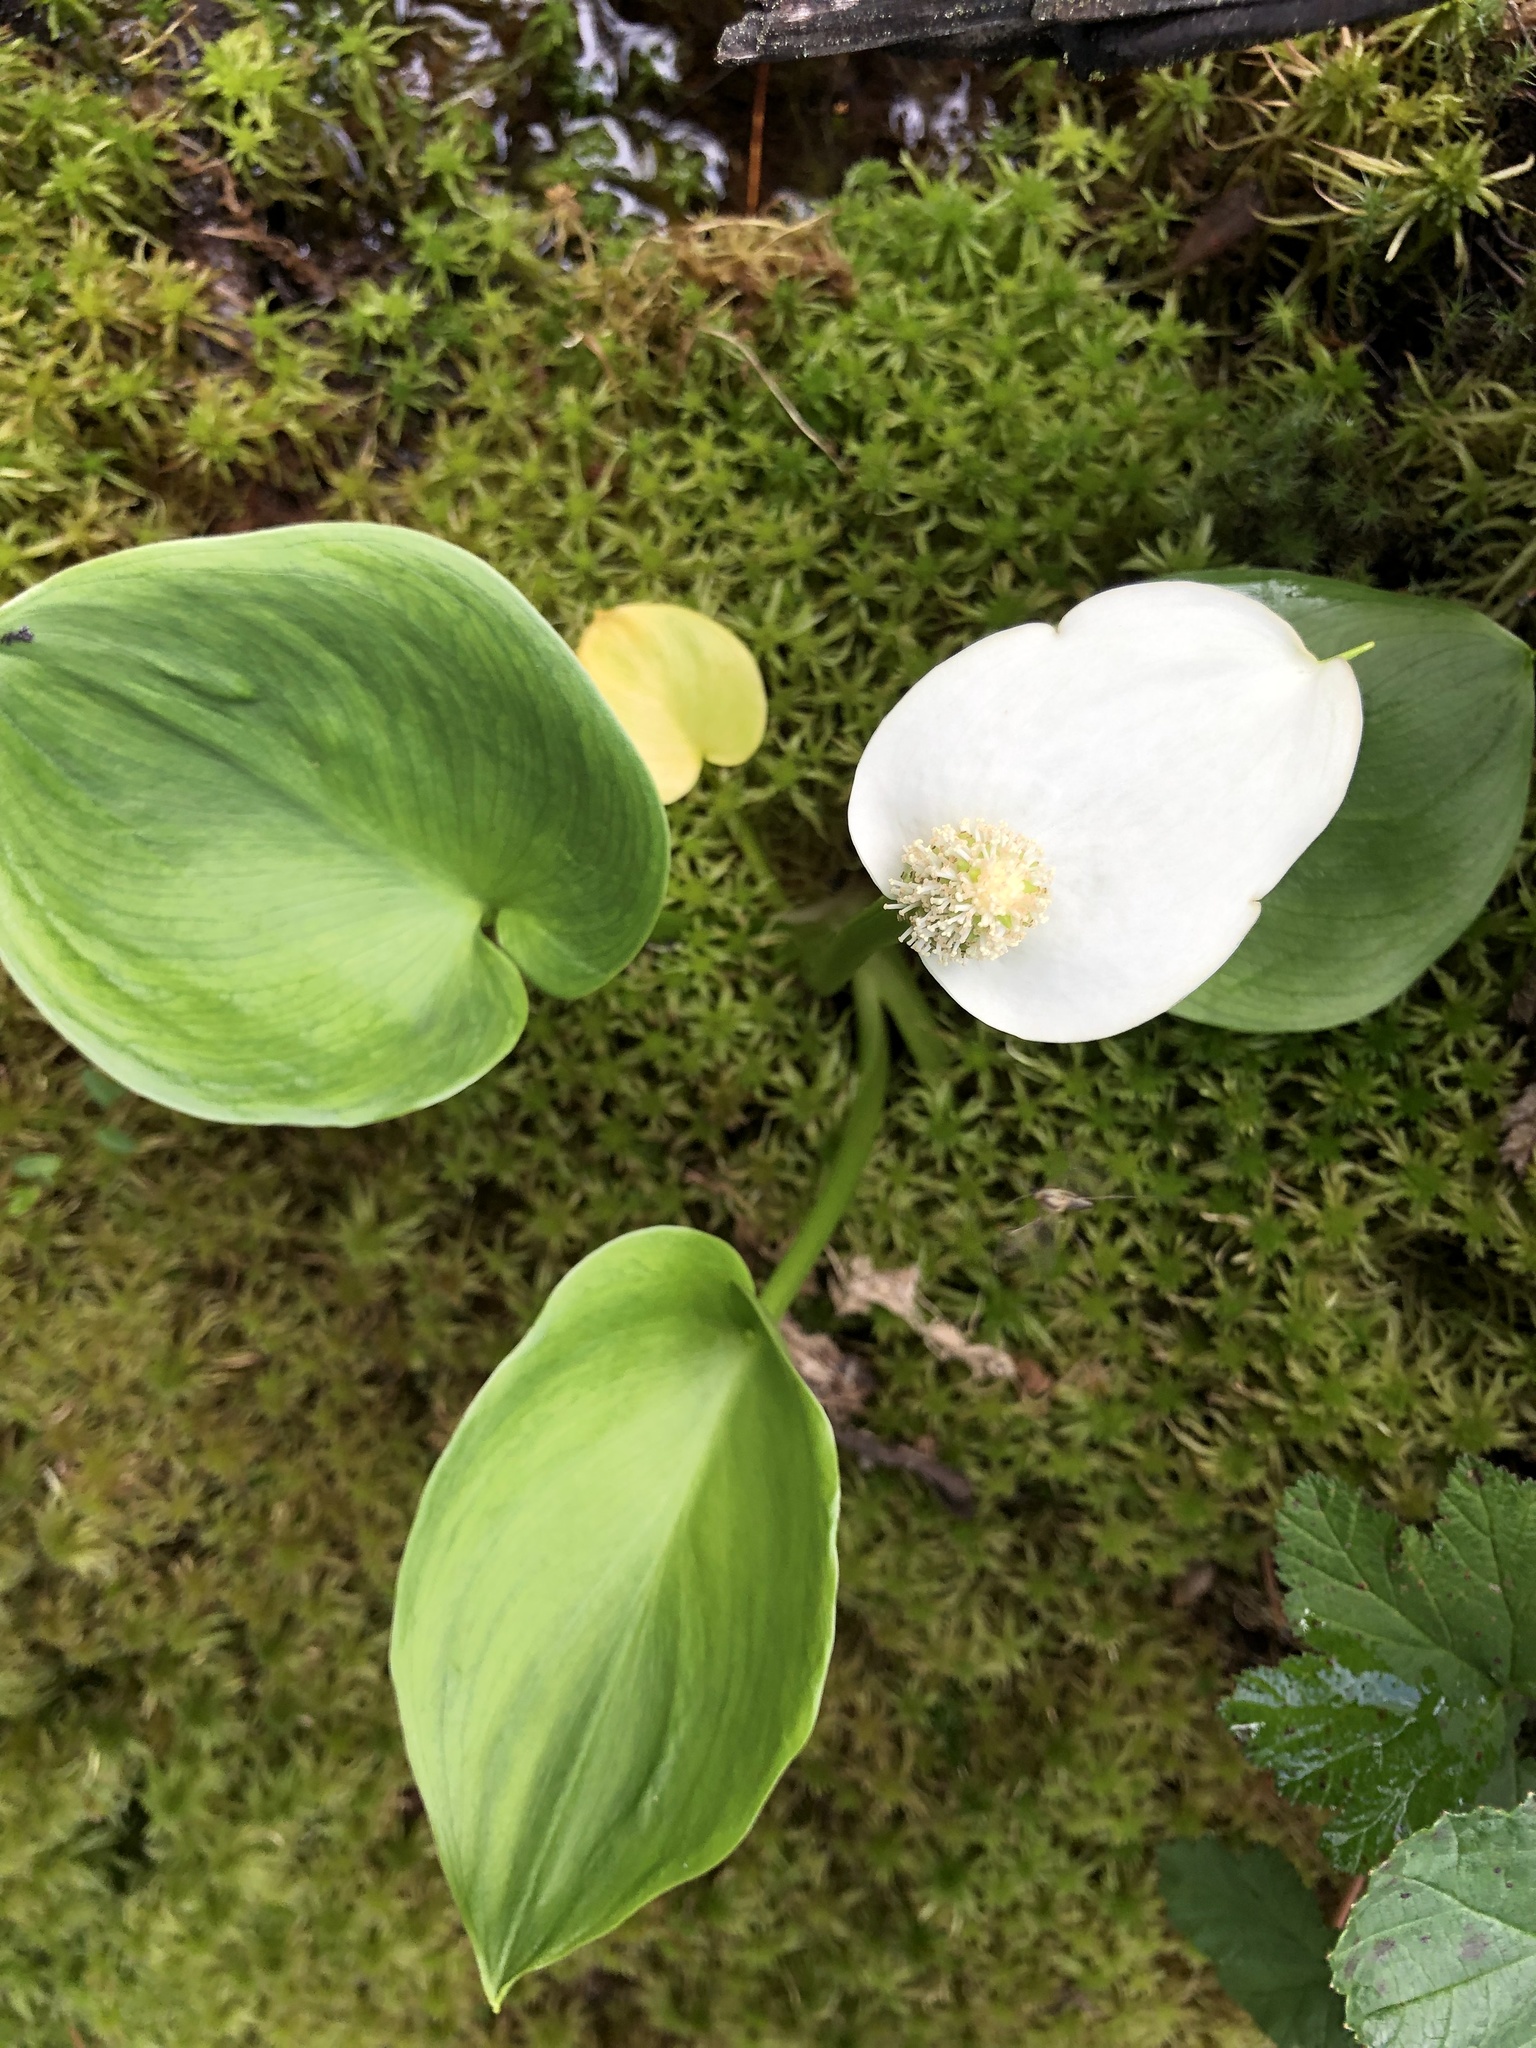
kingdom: Plantae
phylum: Tracheophyta
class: Liliopsida
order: Alismatales
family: Araceae
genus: Calla
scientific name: Calla palustris
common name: Bog arum
